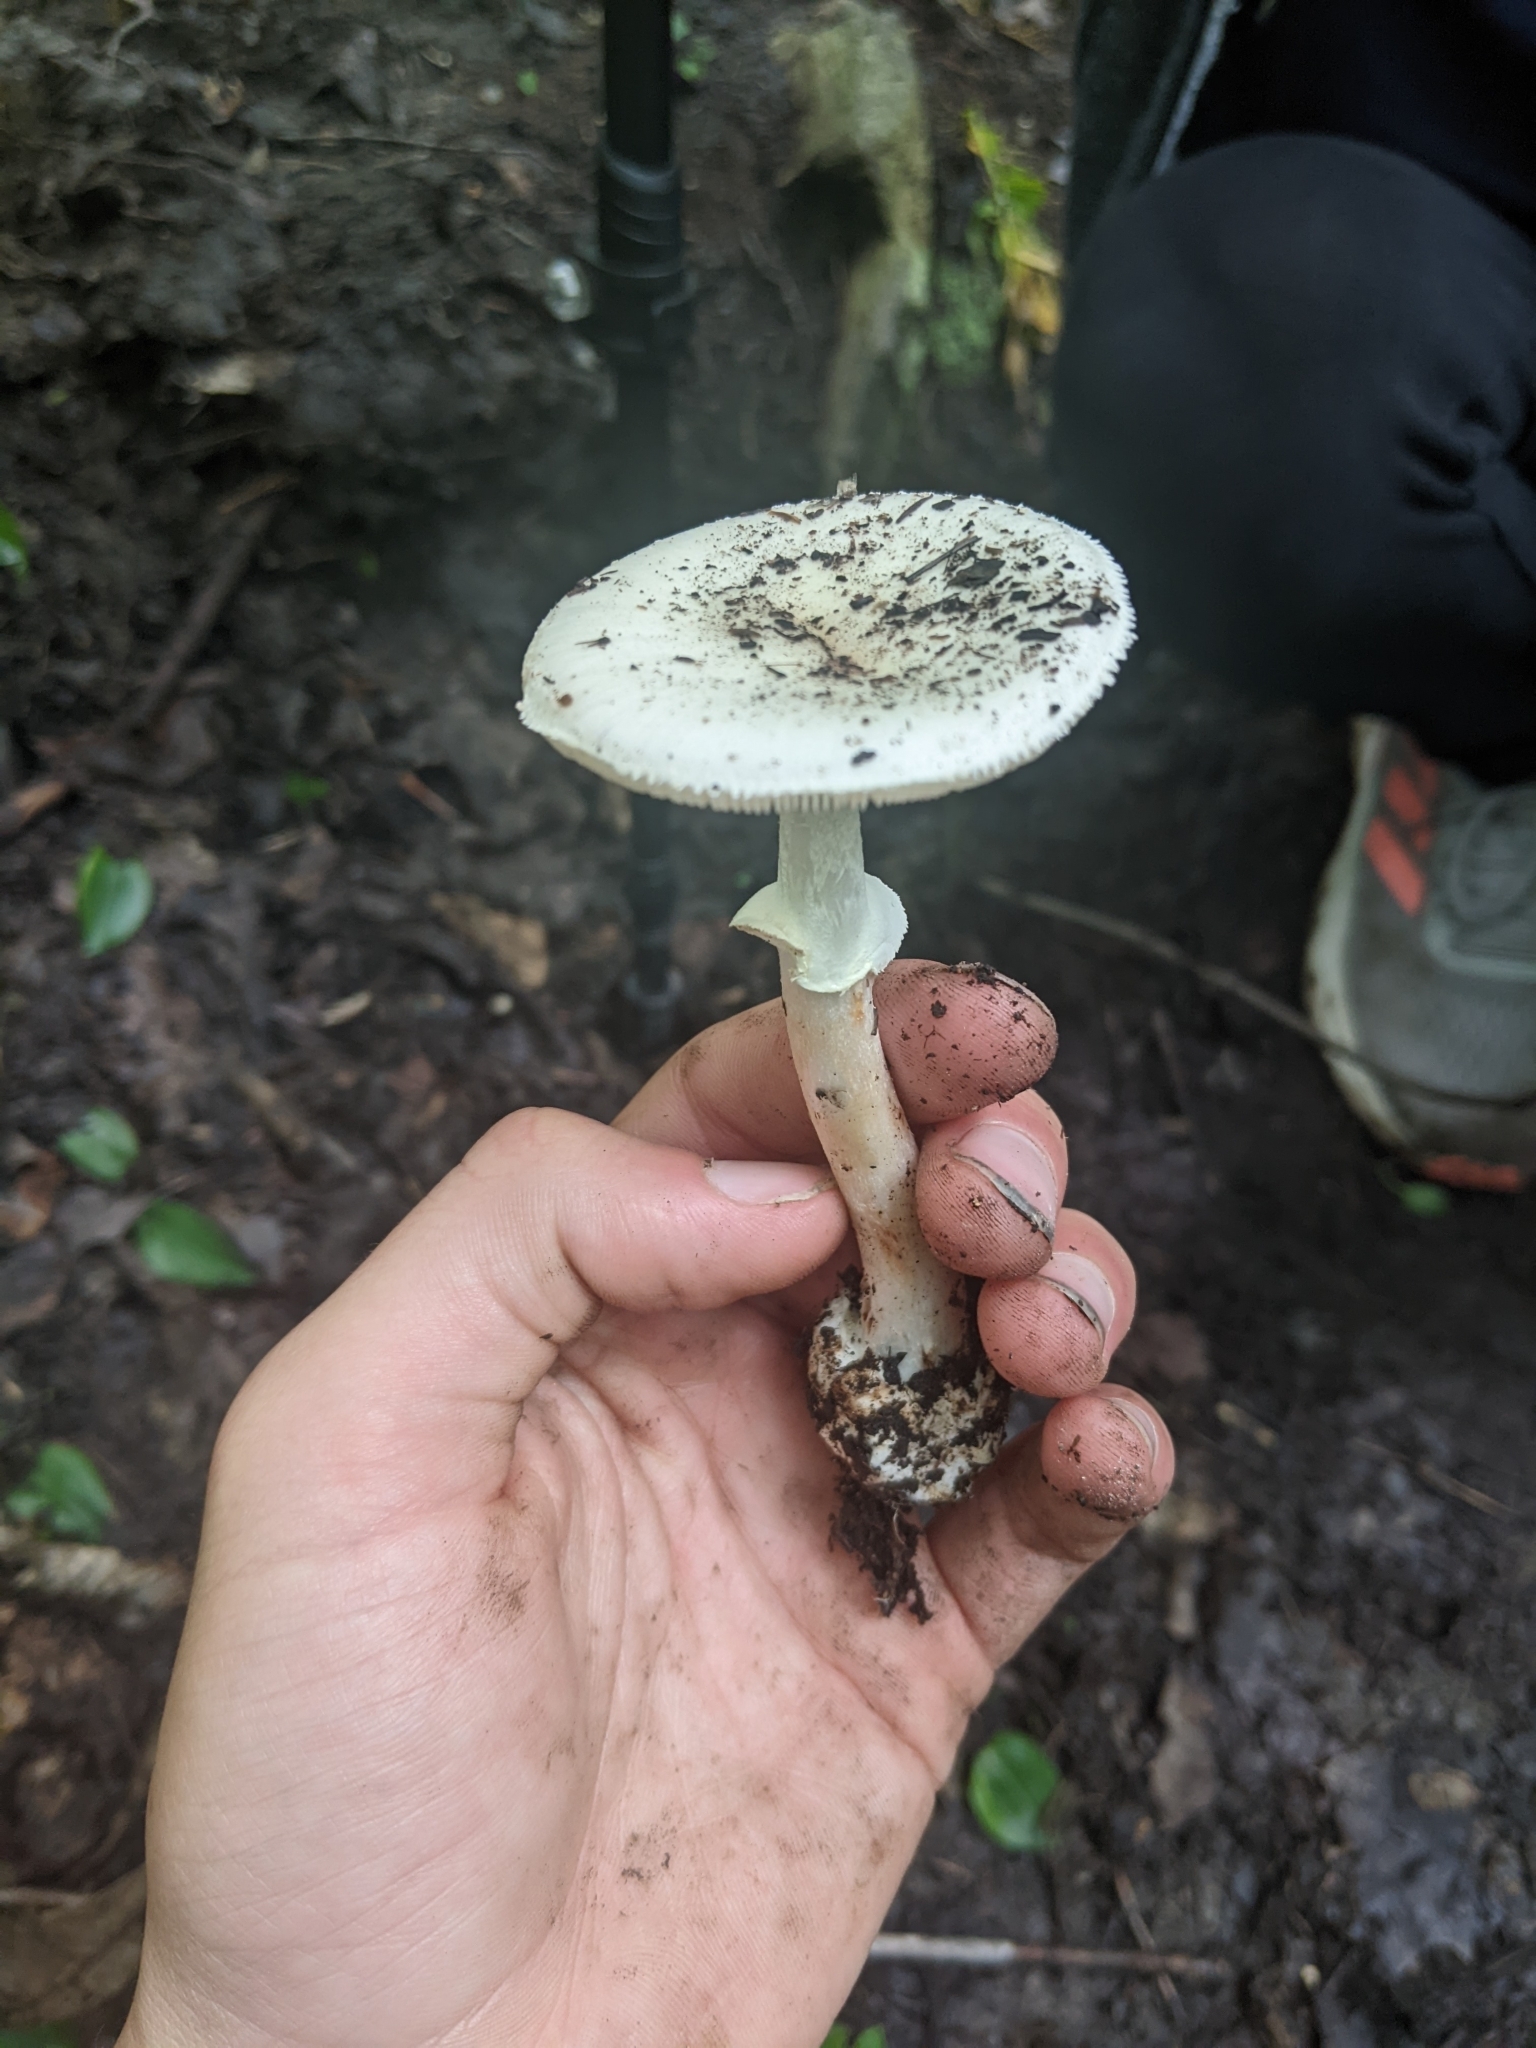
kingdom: Fungi
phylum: Basidiomycota
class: Agaricomycetes
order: Agaricales
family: Amanitaceae
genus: Amanita
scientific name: Amanita bisporigera
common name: Eastern north american destroying angel
